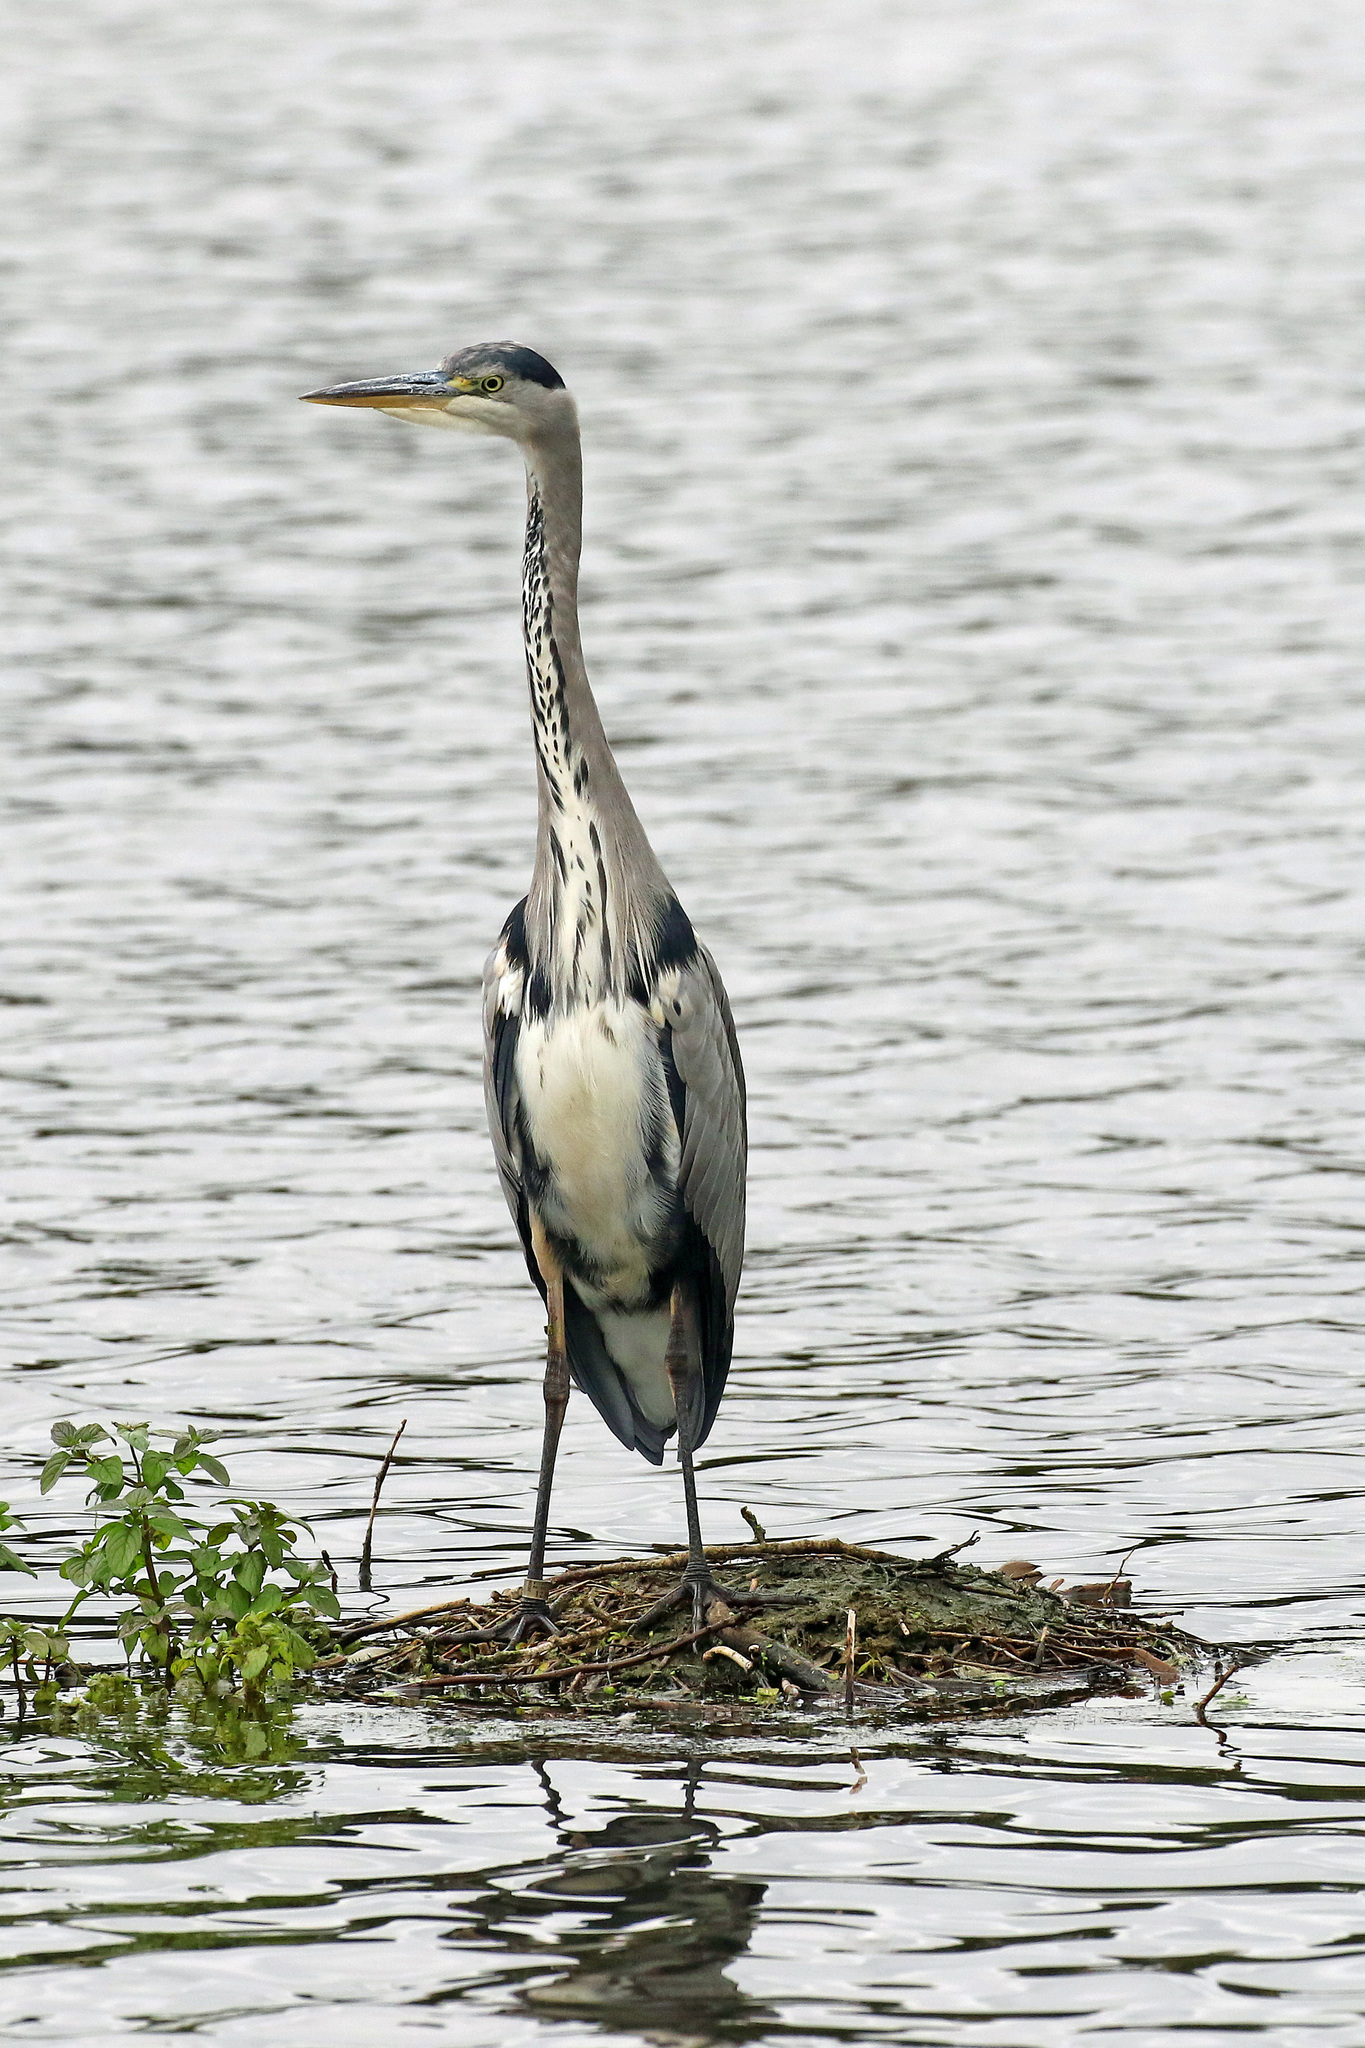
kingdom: Animalia
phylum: Chordata
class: Aves
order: Pelecaniformes
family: Ardeidae
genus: Ardea
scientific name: Ardea cinerea
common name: Grey heron
